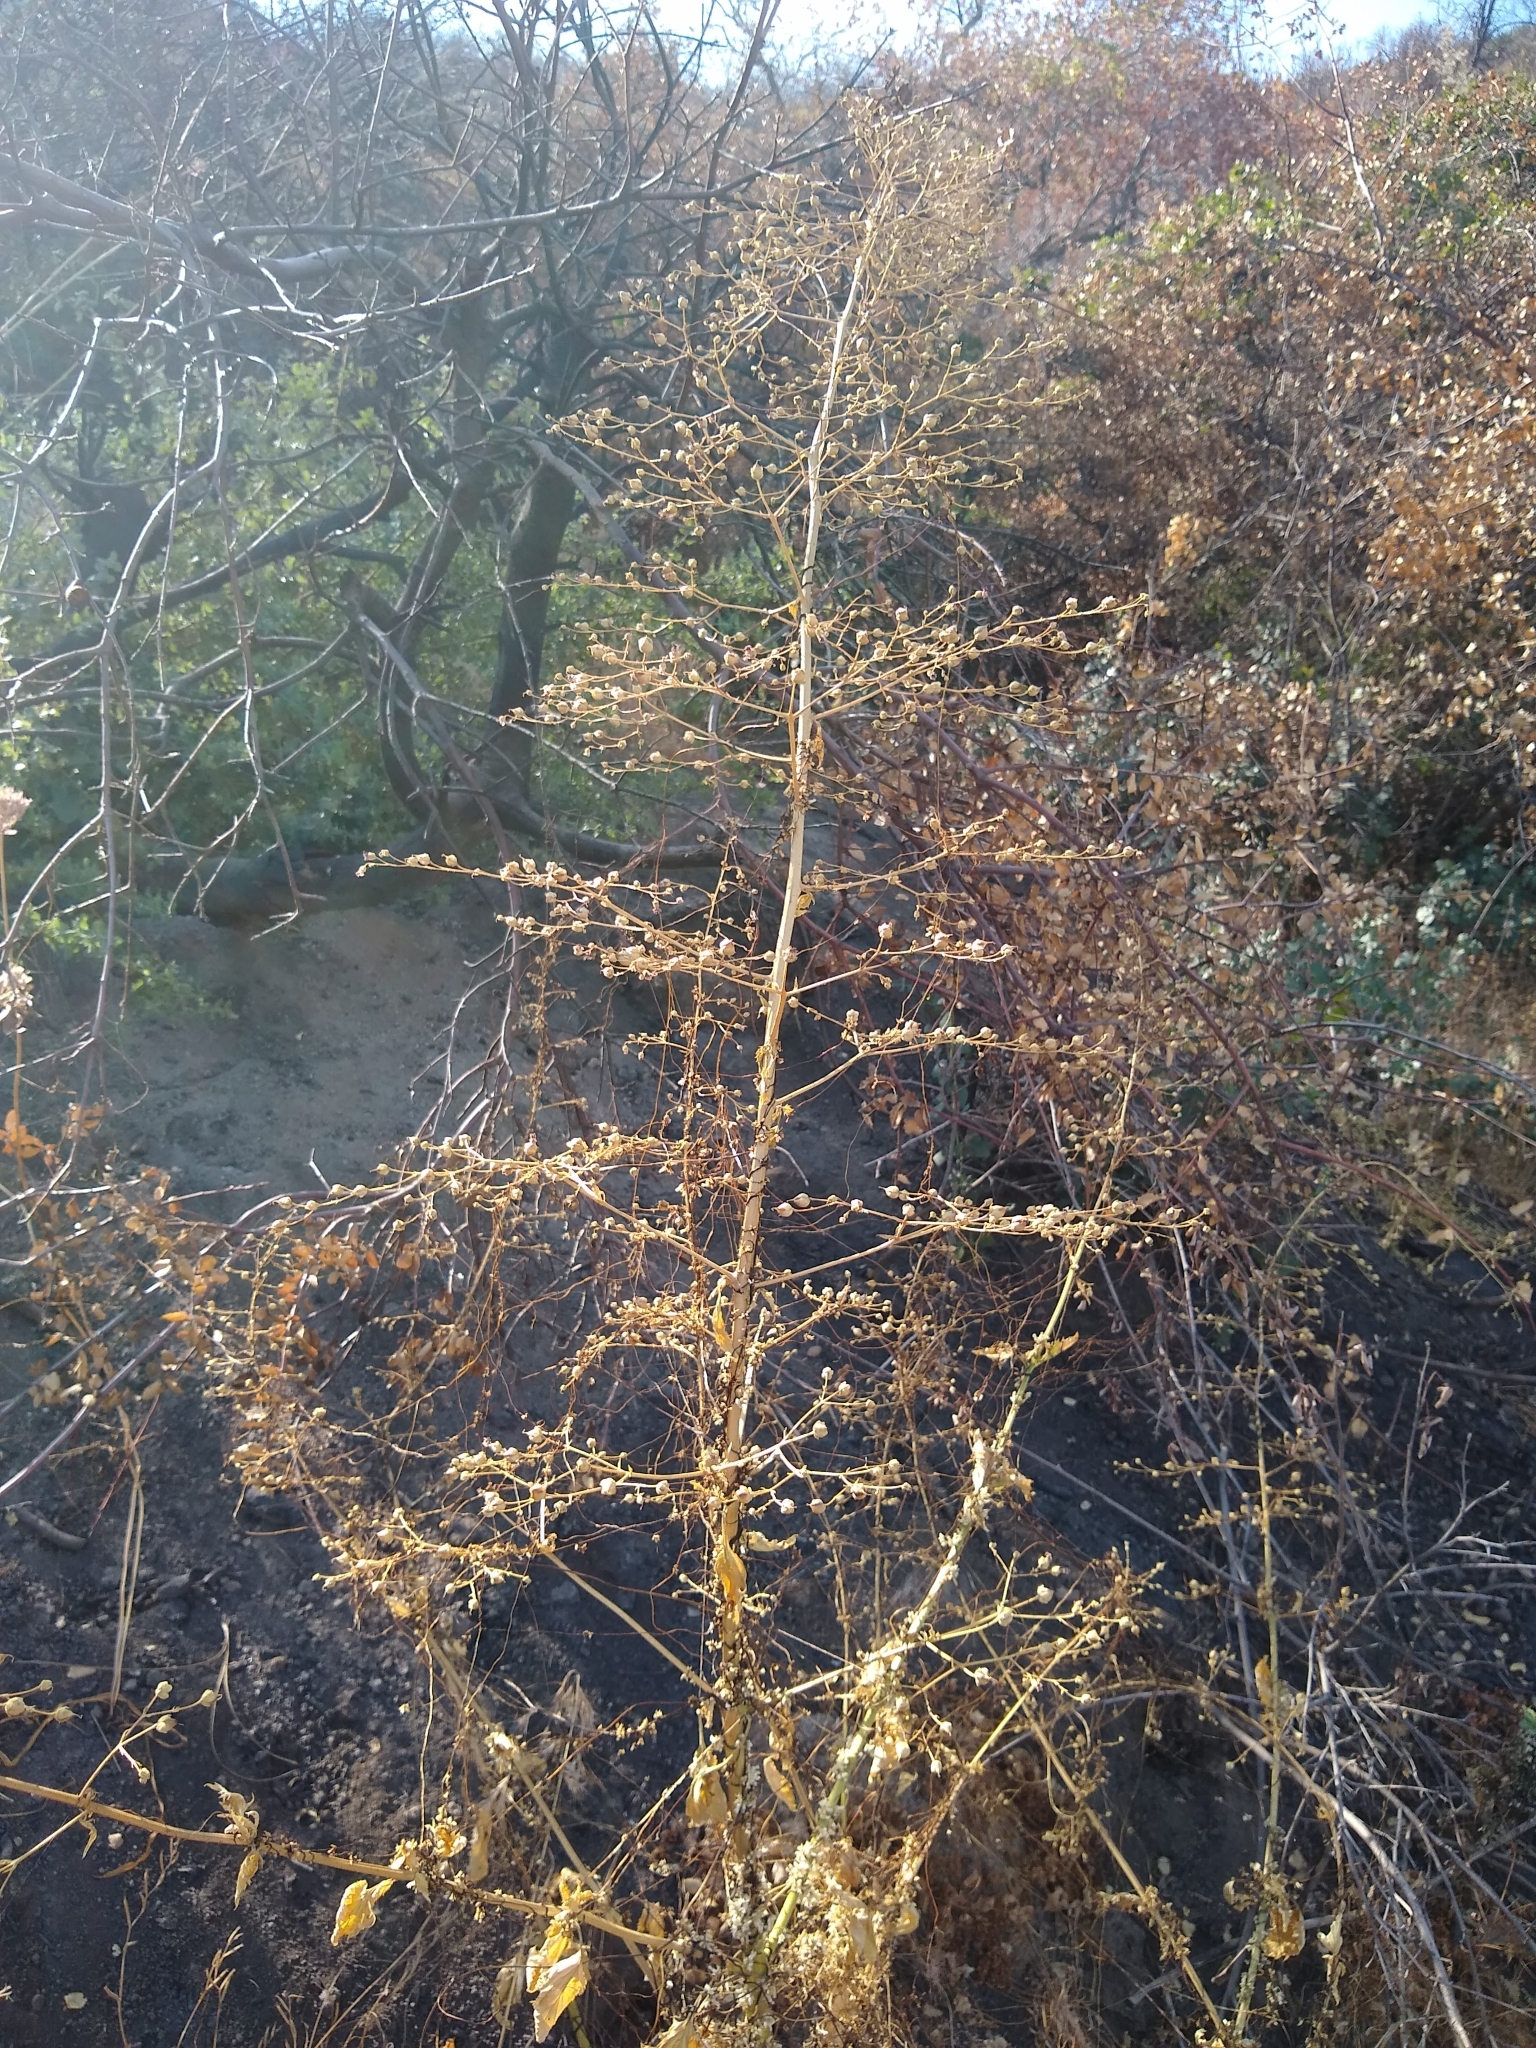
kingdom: Plantae
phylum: Tracheophyta
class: Magnoliopsida
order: Lamiales
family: Scrophulariaceae
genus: Scrophularia
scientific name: Scrophularia californica
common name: California figwort
